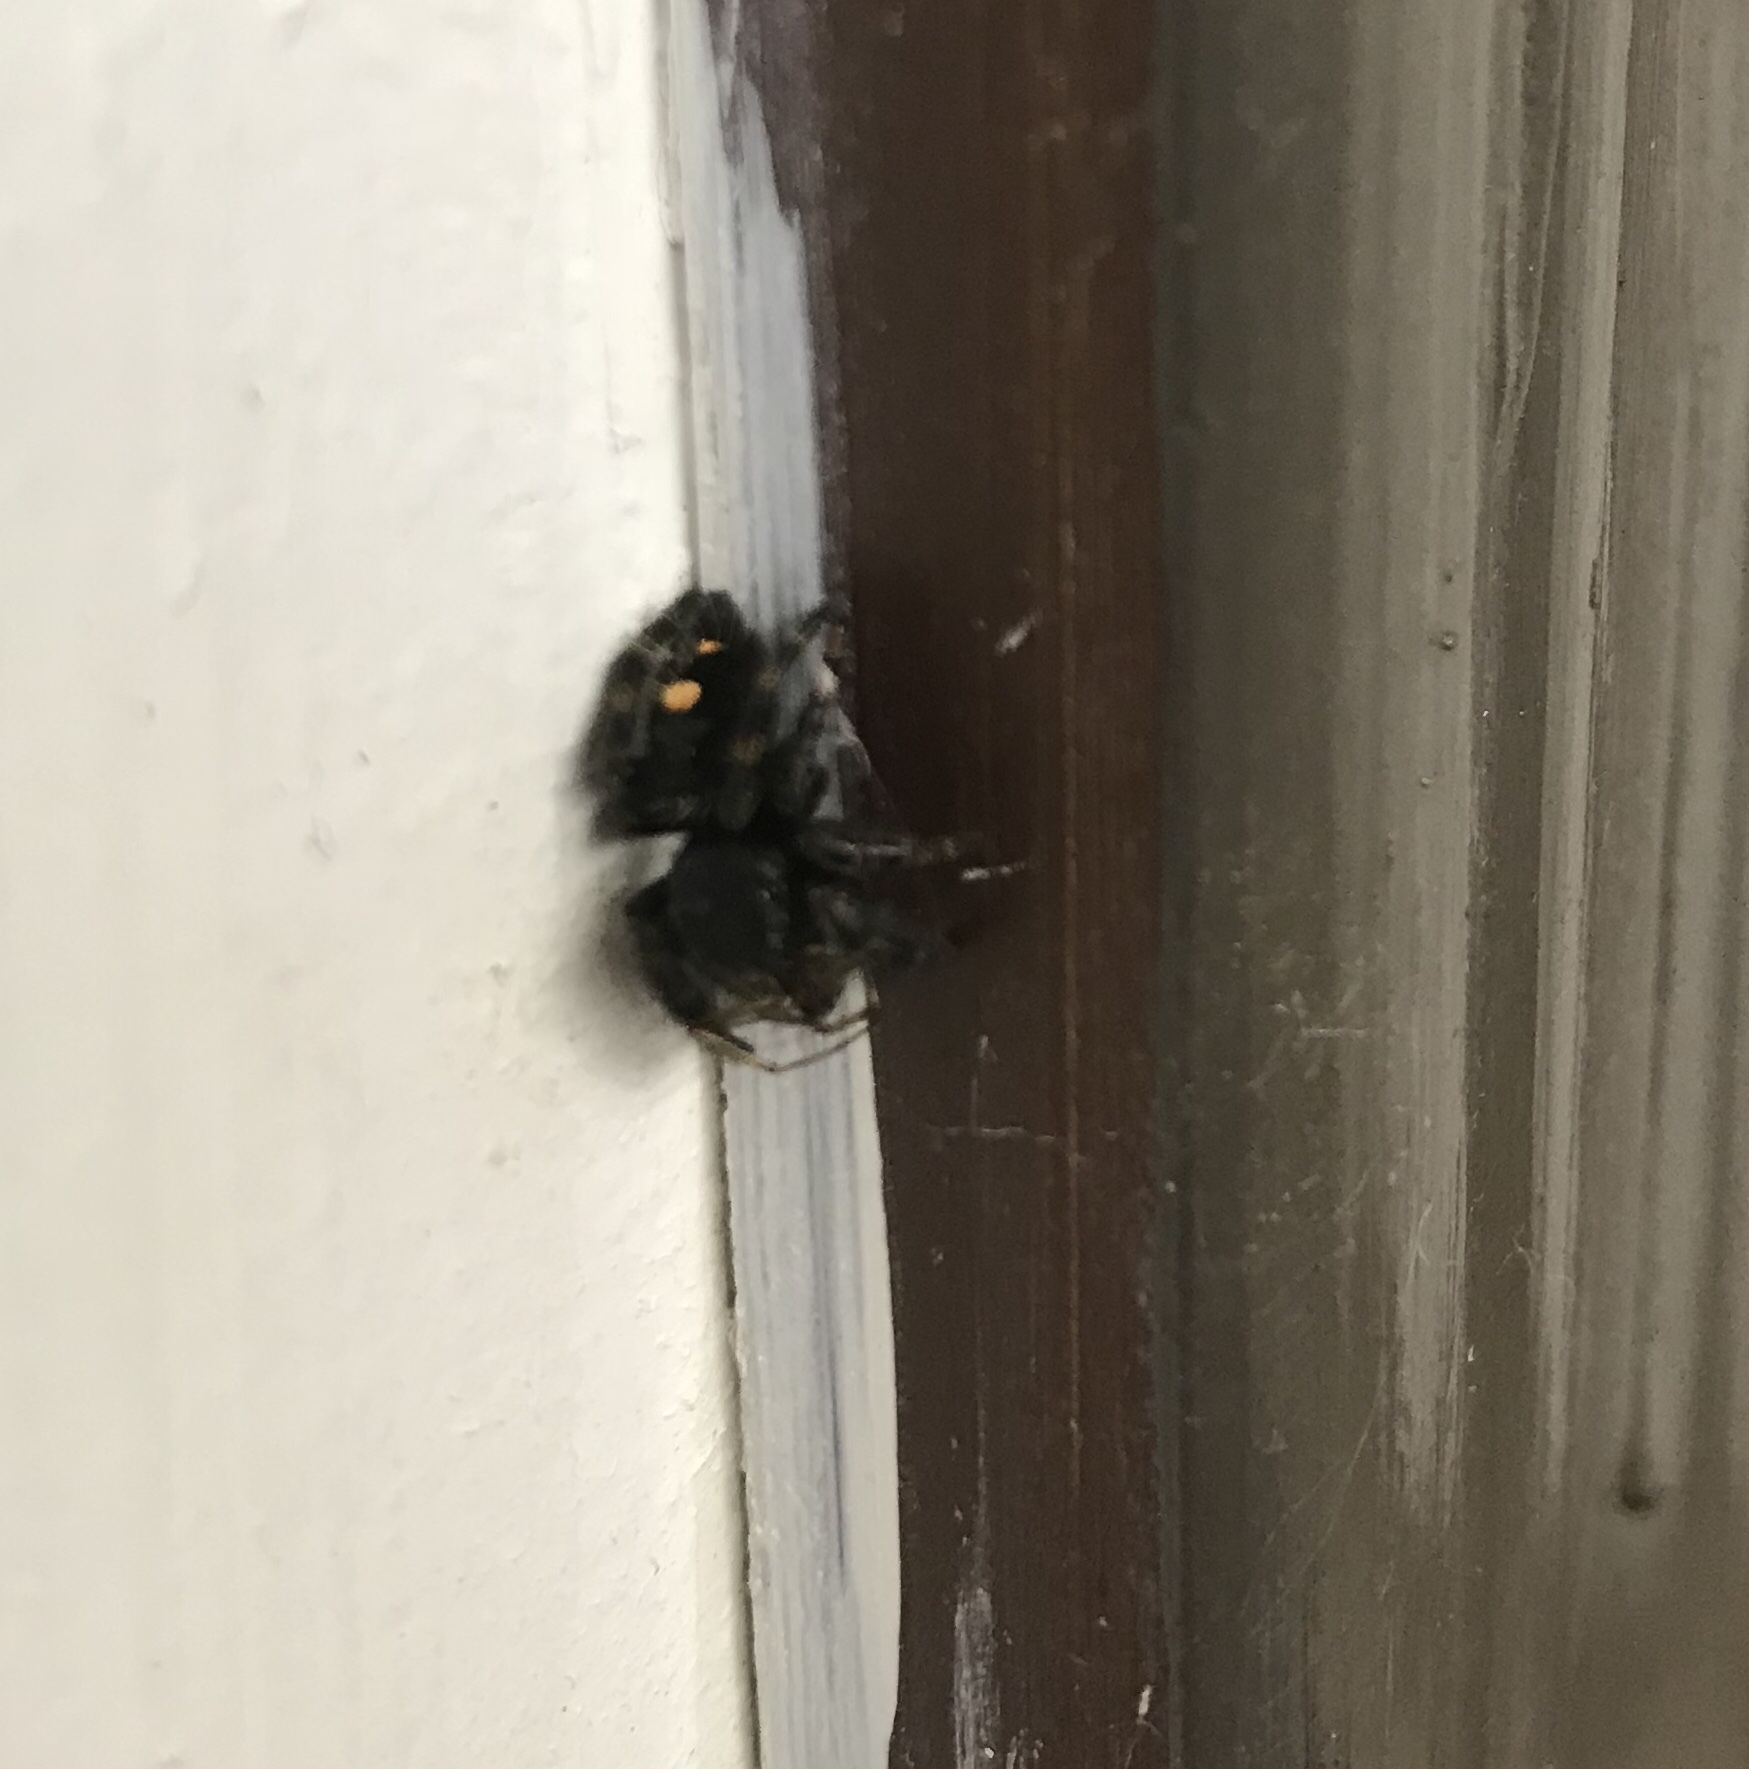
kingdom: Animalia
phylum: Arthropoda
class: Arachnida
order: Araneae
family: Salticidae
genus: Phidippus
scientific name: Phidippus audax
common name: Bold jumper
